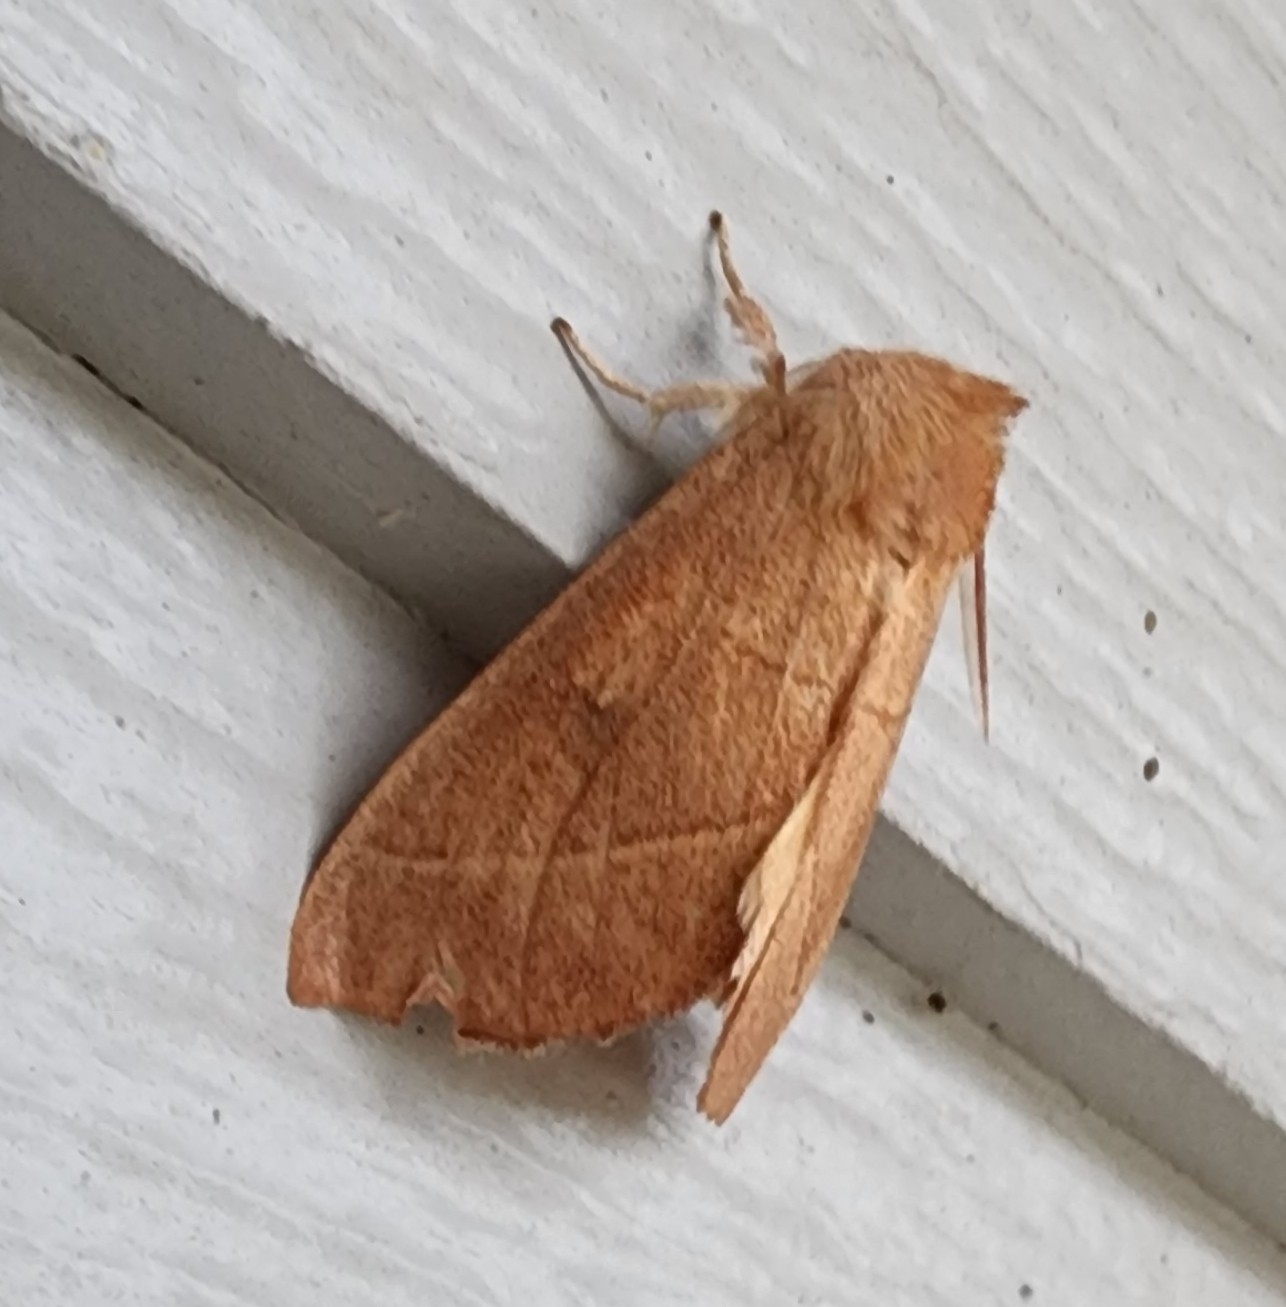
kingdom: Animalia
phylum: Arthropoda
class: Insecta
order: Lepidoptera
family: Notodontidae
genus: Nadata
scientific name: Nadata gibbosa
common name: White-dotted prominent
